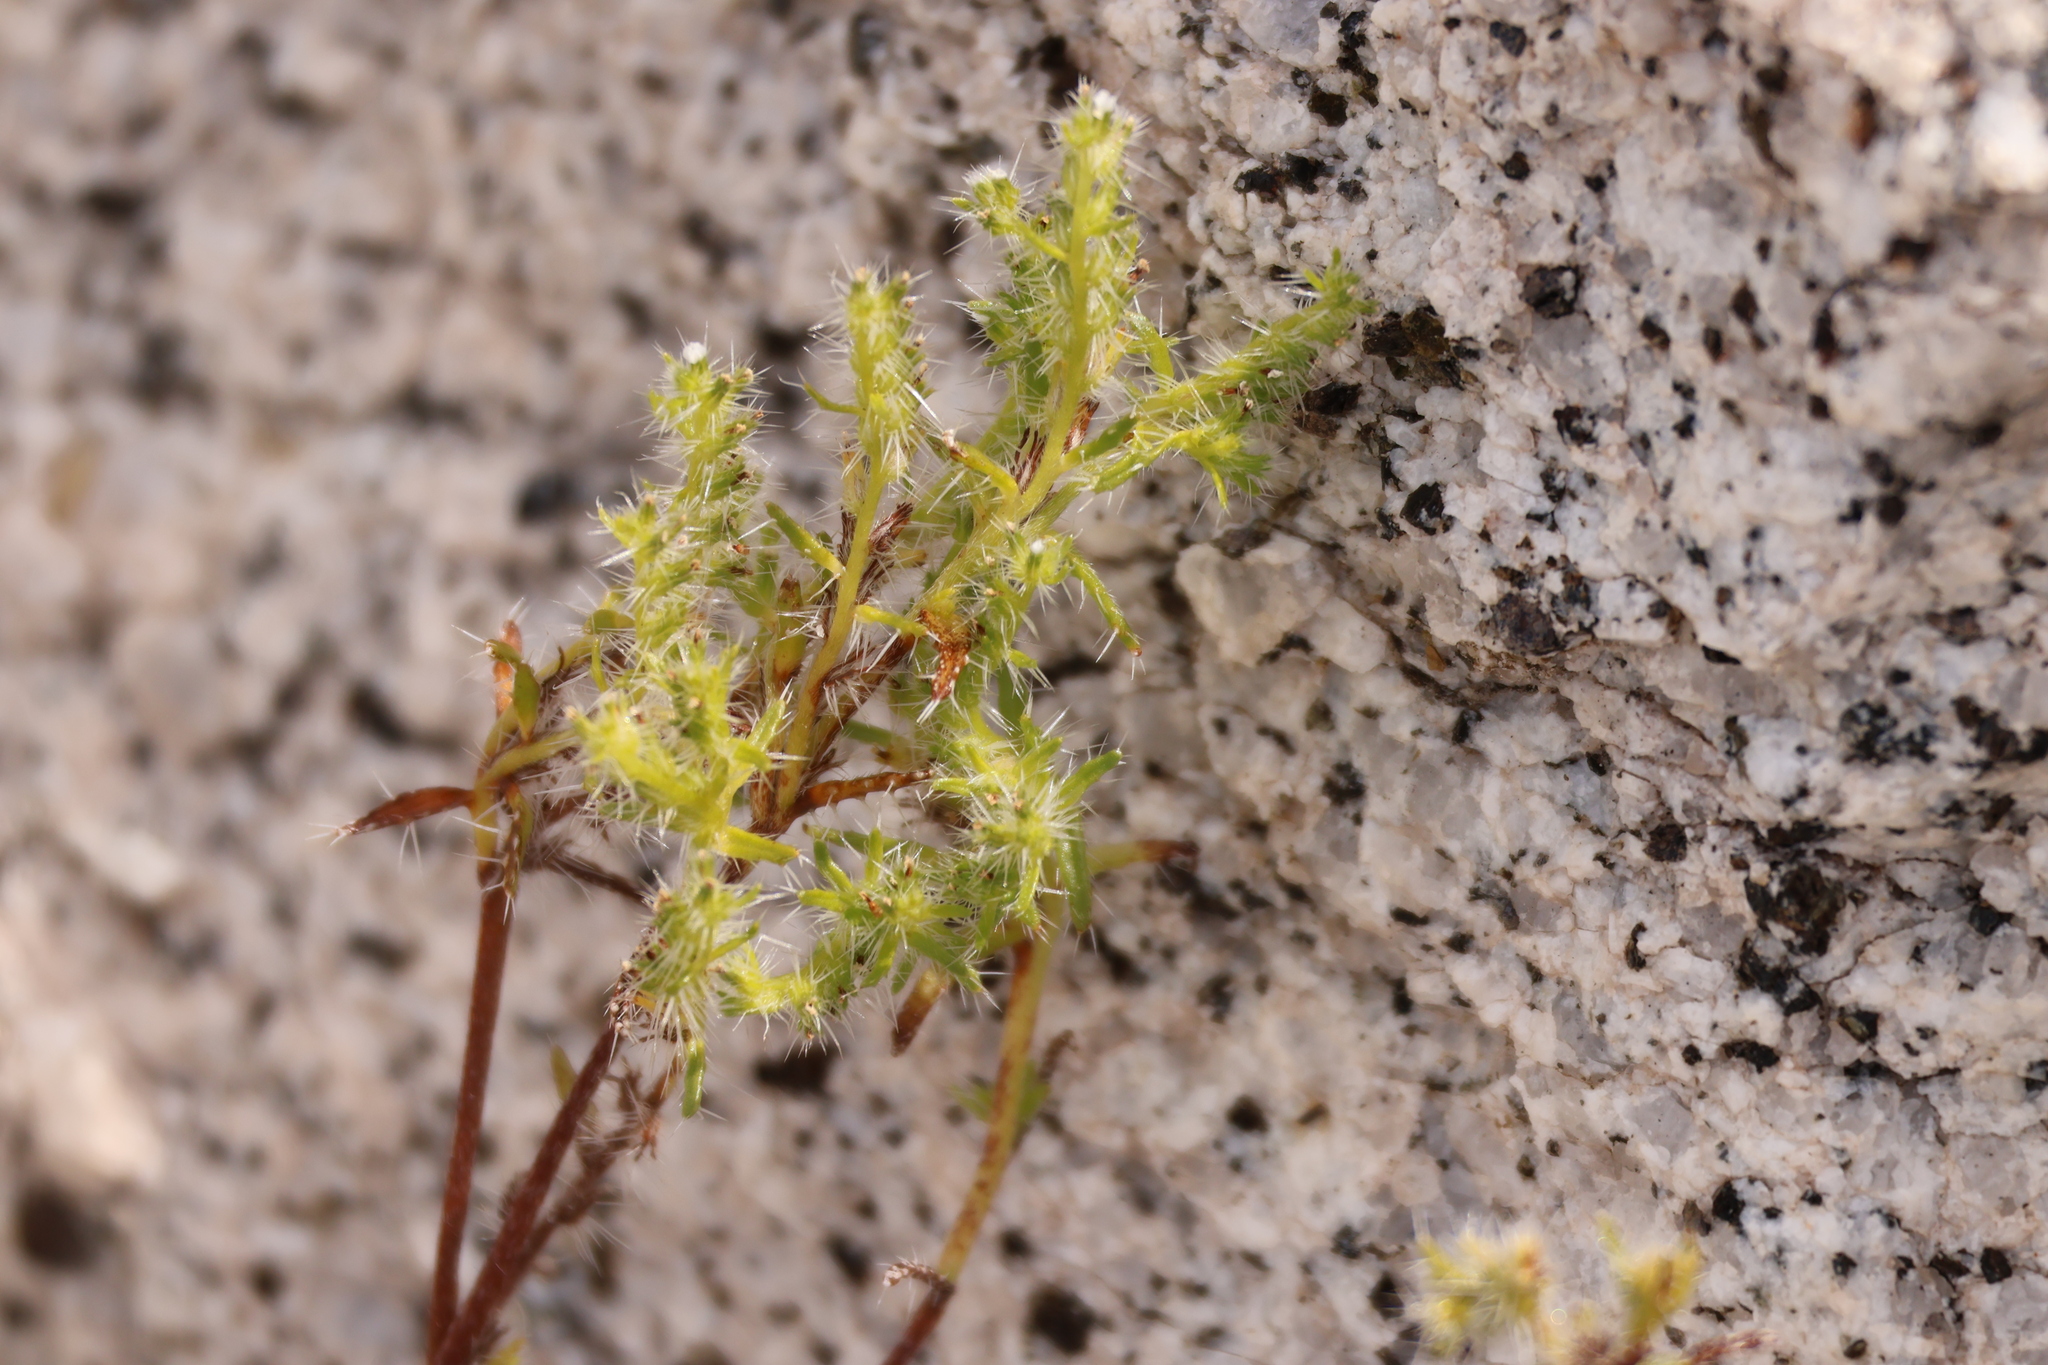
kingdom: Plantae
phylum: Tracheophyta
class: Magnoliopsida
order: Boraginales
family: Boraginaceae
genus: Cryptantha
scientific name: Cryptantha maritima
